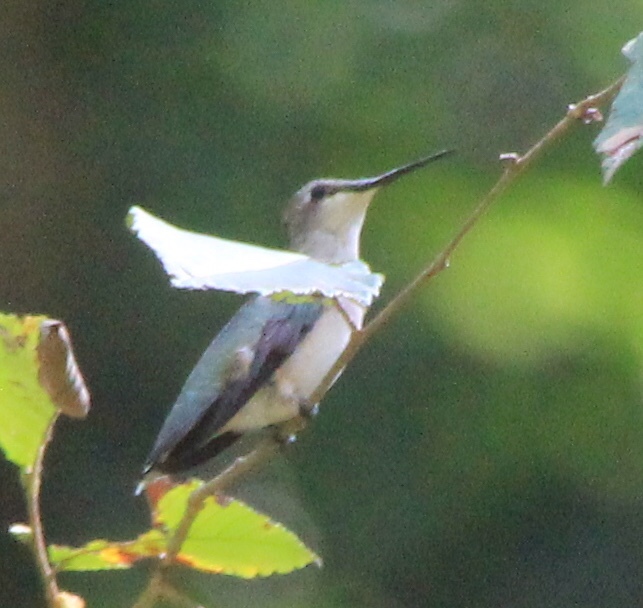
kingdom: Animalia
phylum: Chordata
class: Aves
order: Apodiformes
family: Trochilidae
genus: Archilochus
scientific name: Archilochus colubris
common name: Ruby-throated hummingbird
